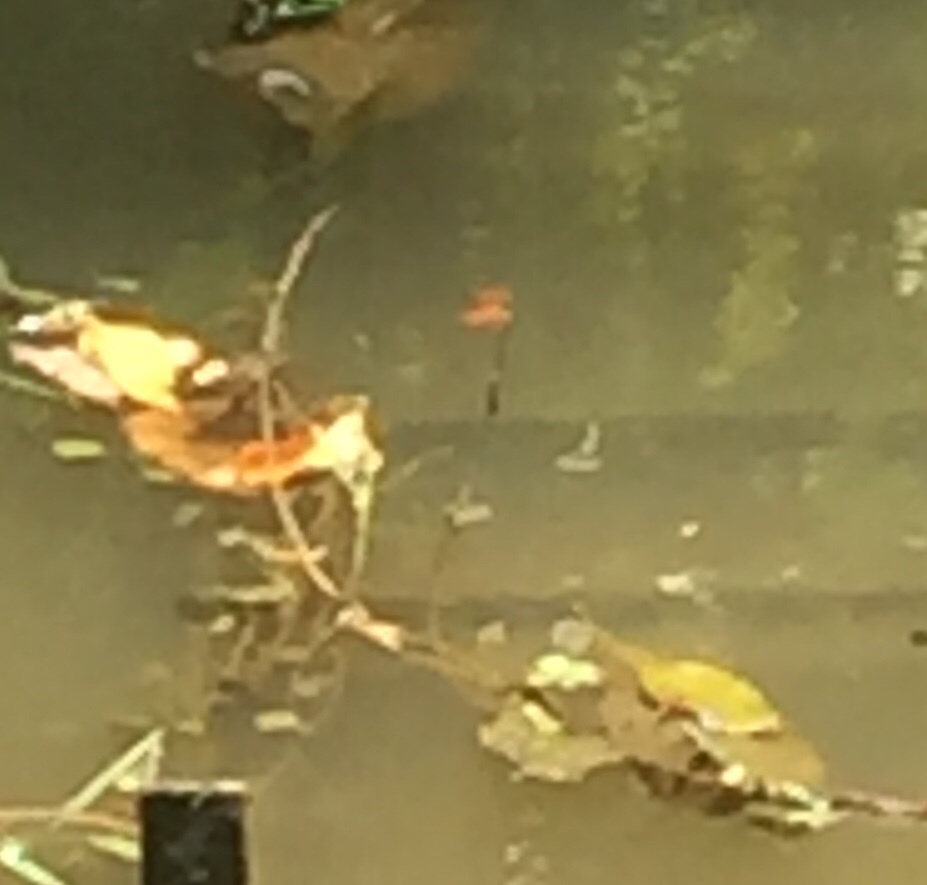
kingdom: Animalia
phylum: Arthropoda
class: Insecta
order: Odonata
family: Libellulidae
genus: Brachythemis
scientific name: Brachythemis contaminata
